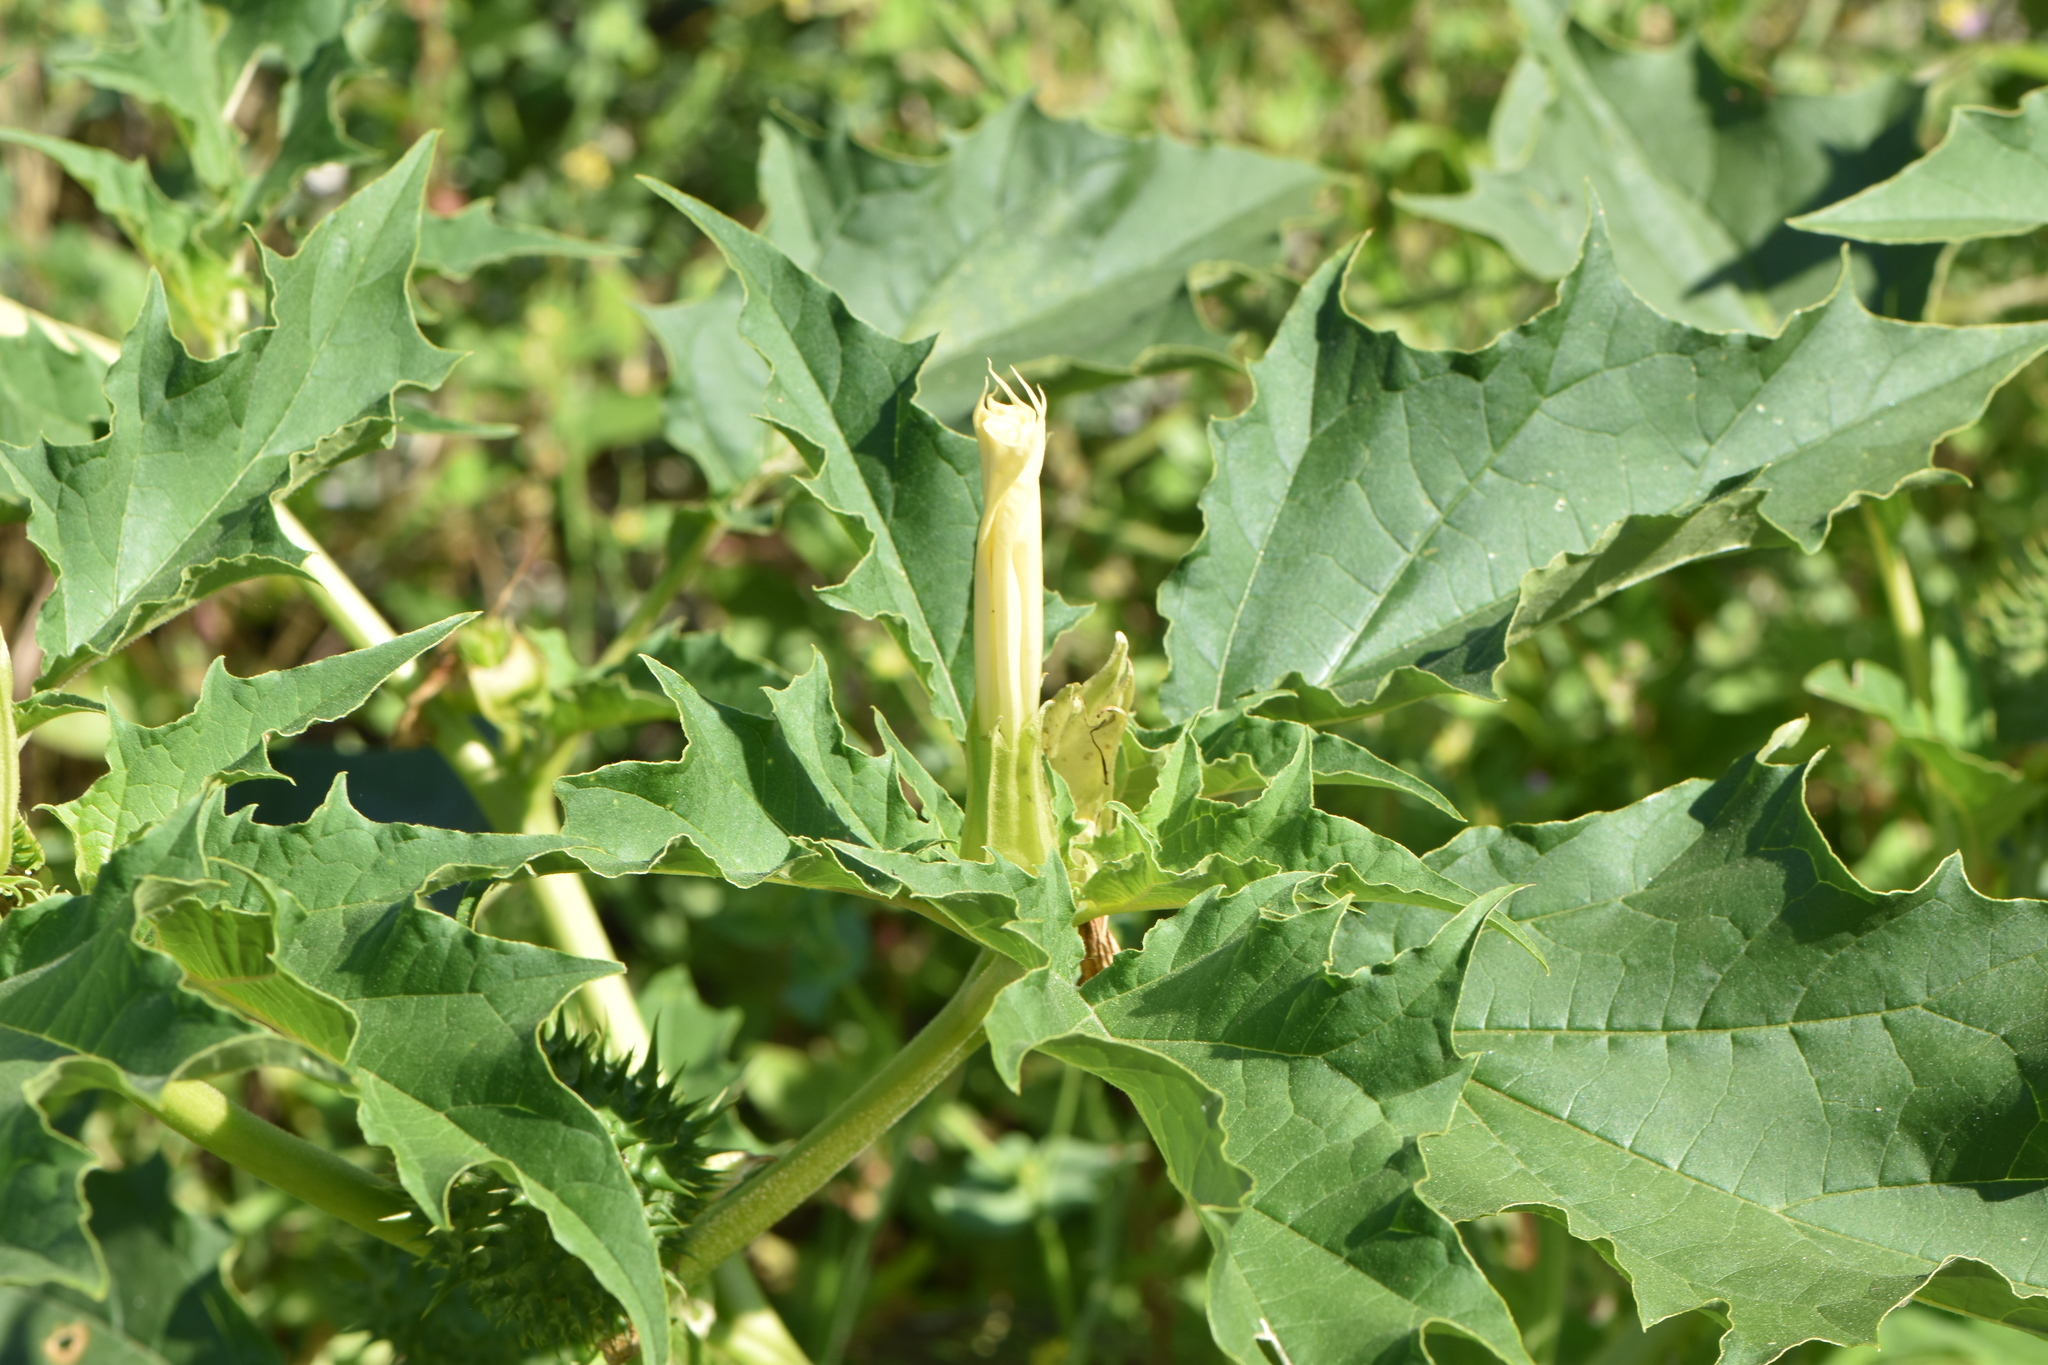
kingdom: Plantae
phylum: Tracheophyta
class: Magnoliopsida
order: Solanales
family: Solanaceae
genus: Datura
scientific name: Datura stramonium
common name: Thorn-apple
